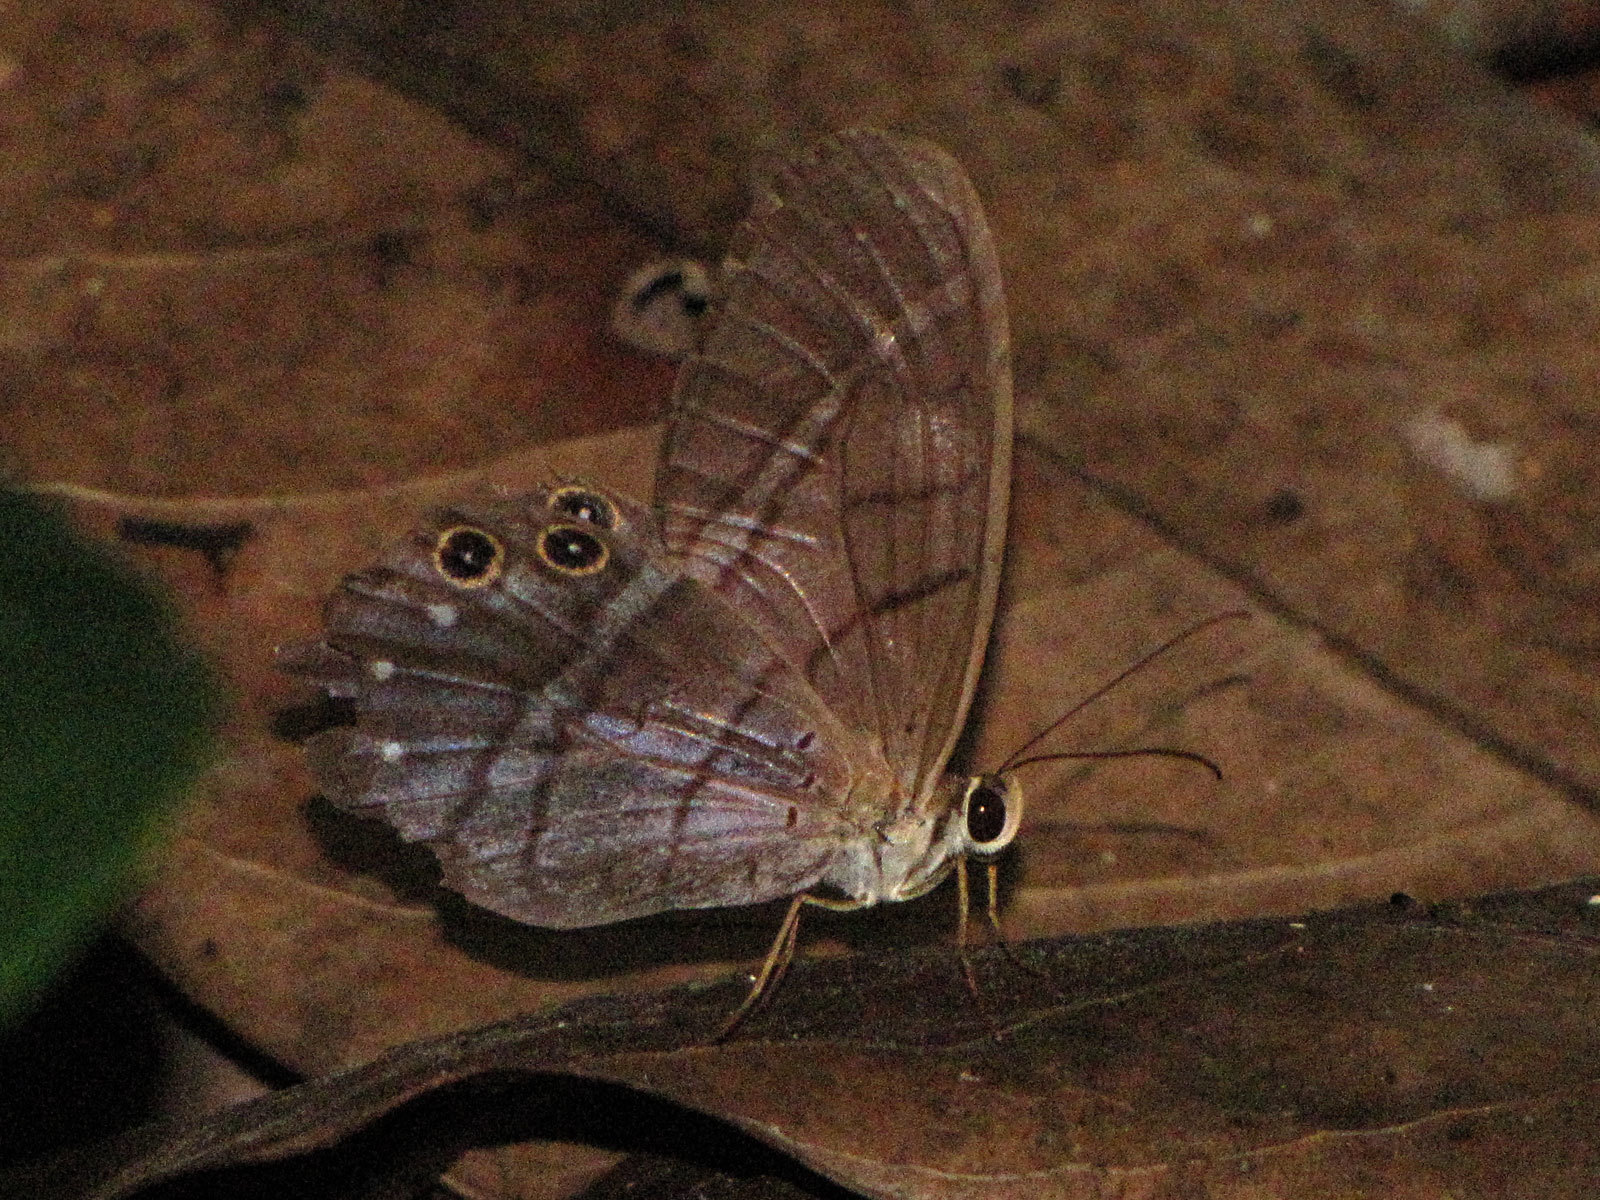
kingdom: Animalia
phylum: Arthropoda
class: Insecta
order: Lepidoptera
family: Nymphalidae
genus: Pierella
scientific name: Pierella astyoche
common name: Astyoche satyr
